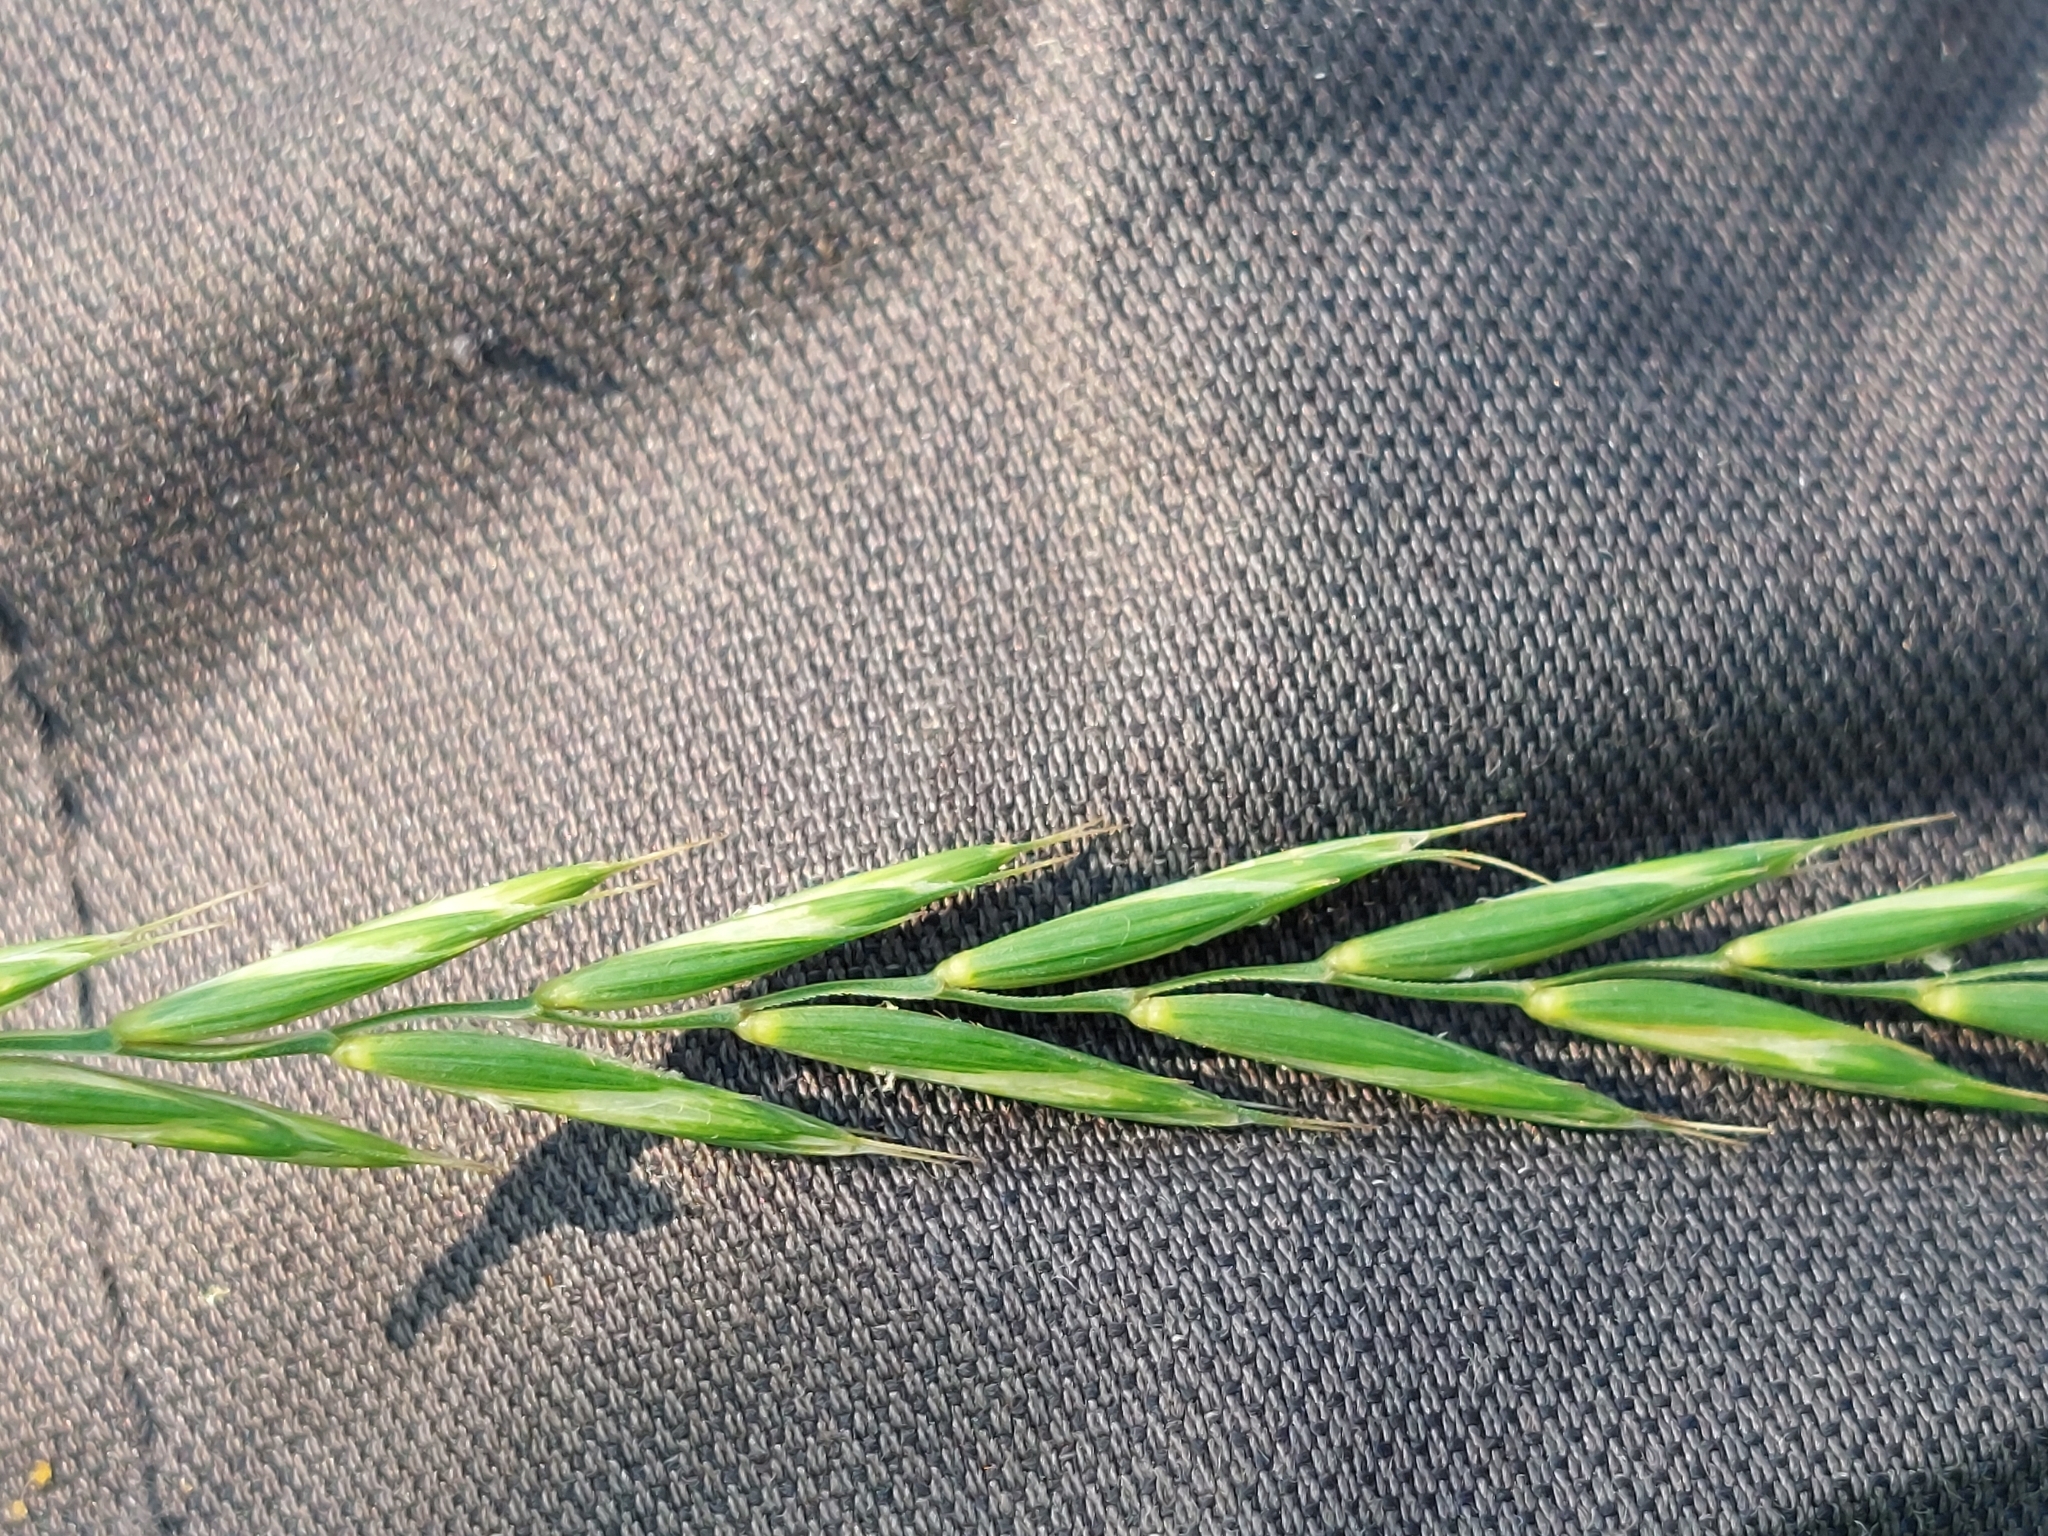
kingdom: Plantae
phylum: Tracheophyta
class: Liliopsida
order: Poales
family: Poaceae
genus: Elymus
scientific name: Elymus repens
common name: Quackgrass
